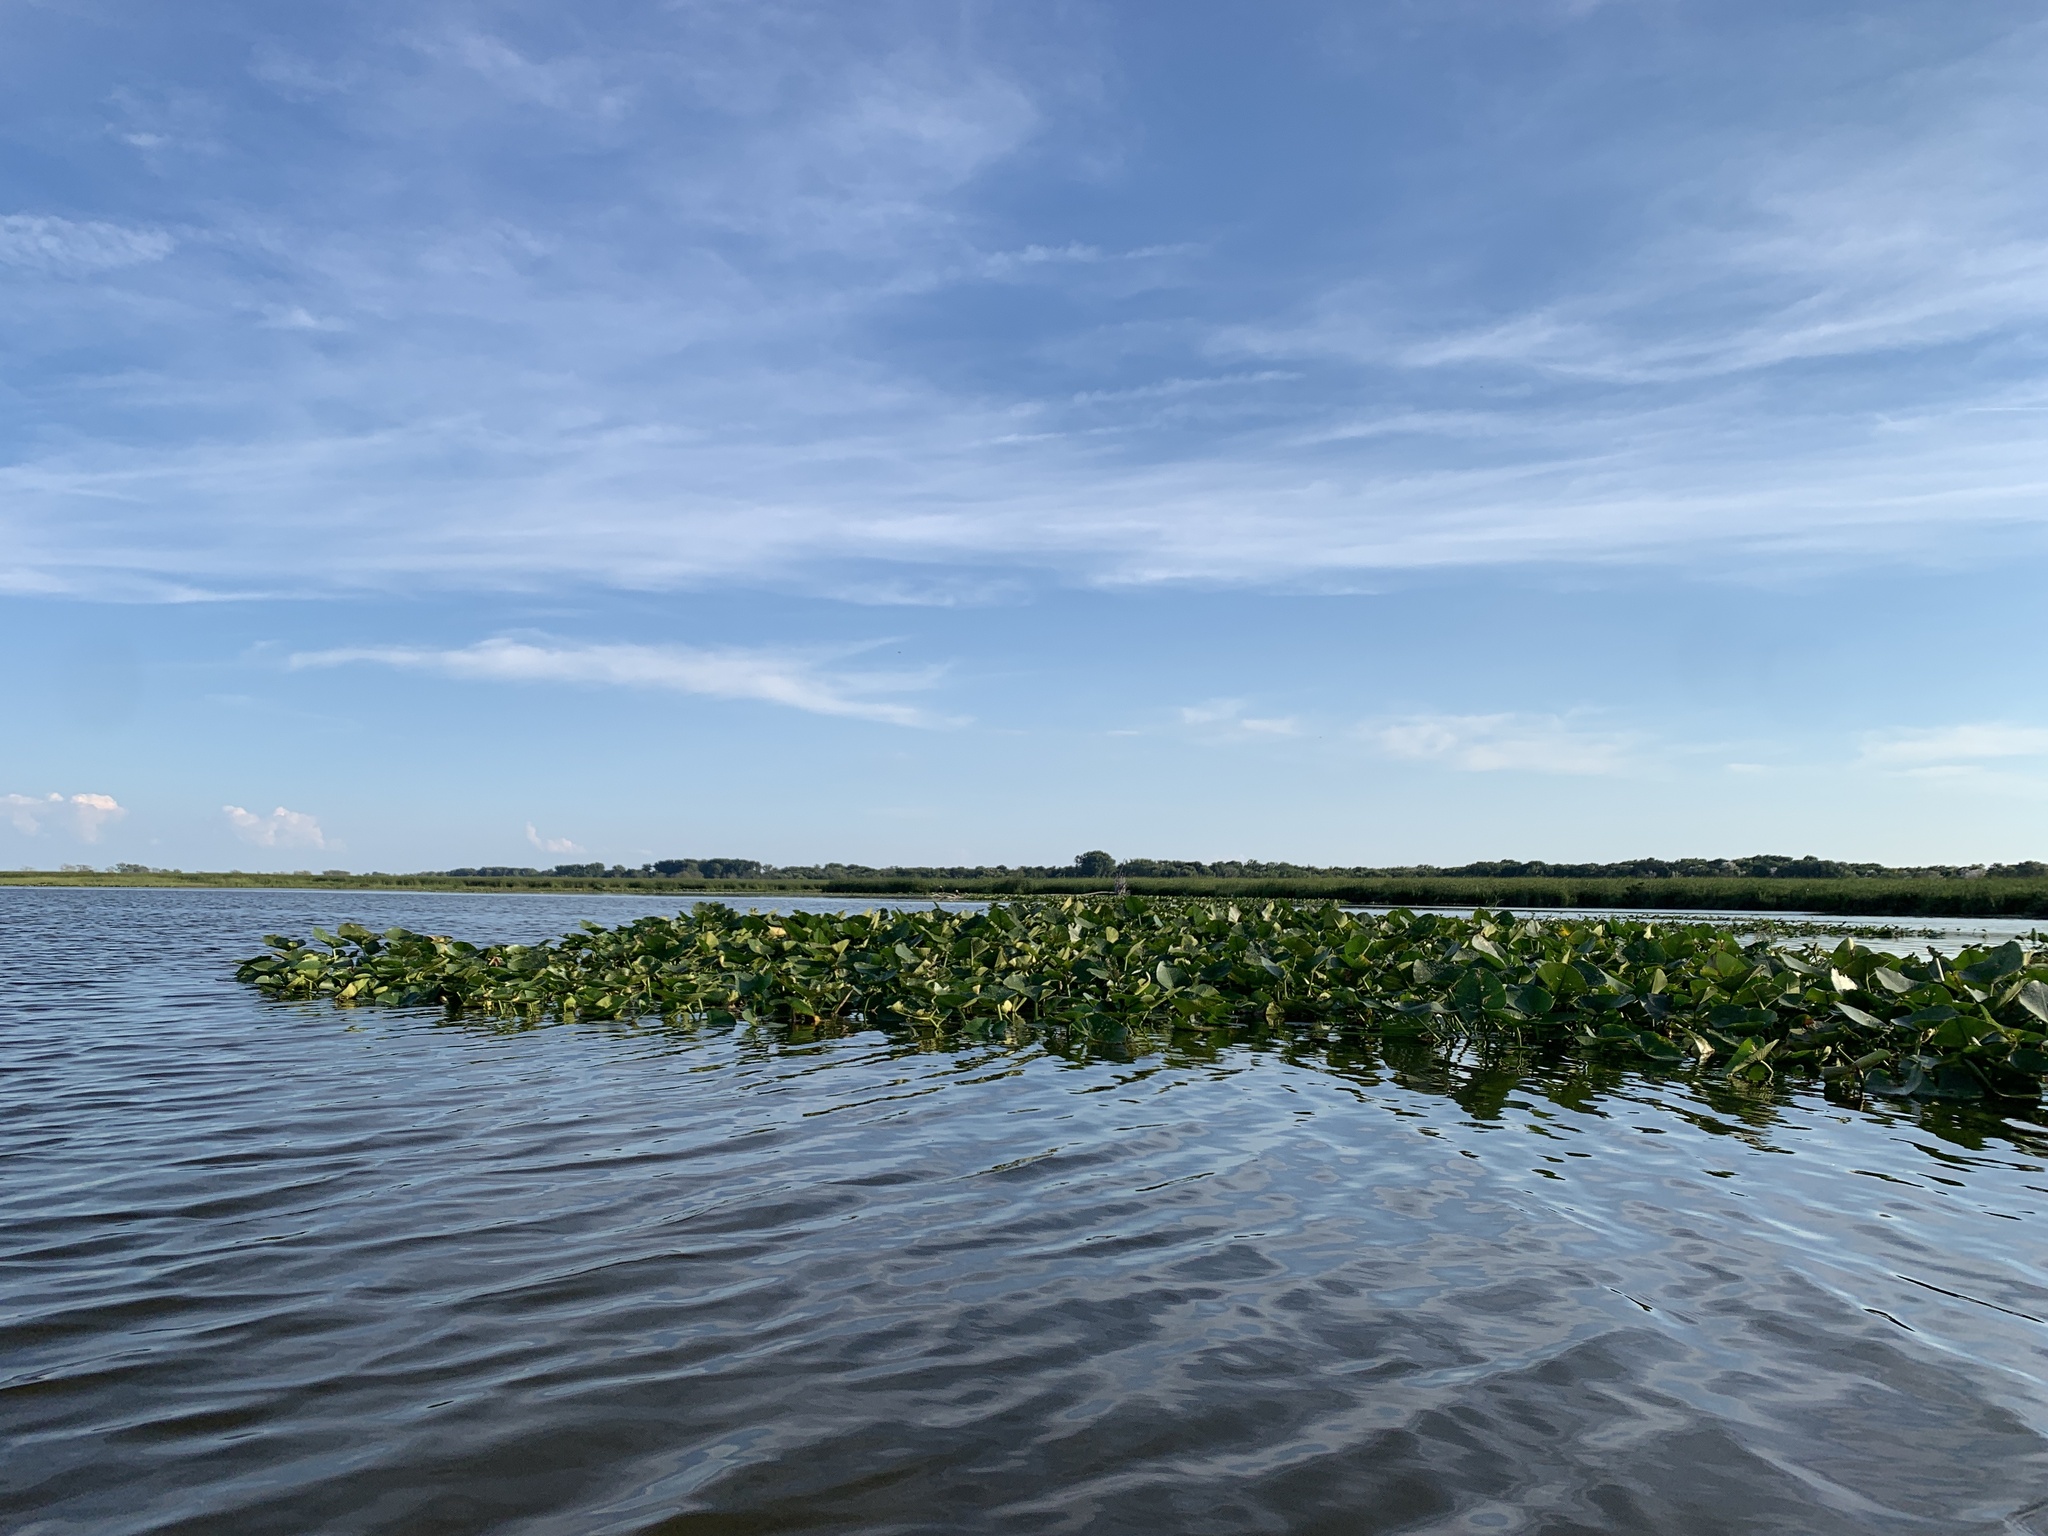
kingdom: Animalia
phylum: Chordata
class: Aves
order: Accipitriformes
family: Accipitridae
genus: Haliaeetus
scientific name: Haliaeetus leucocephalus
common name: Bald eagle
